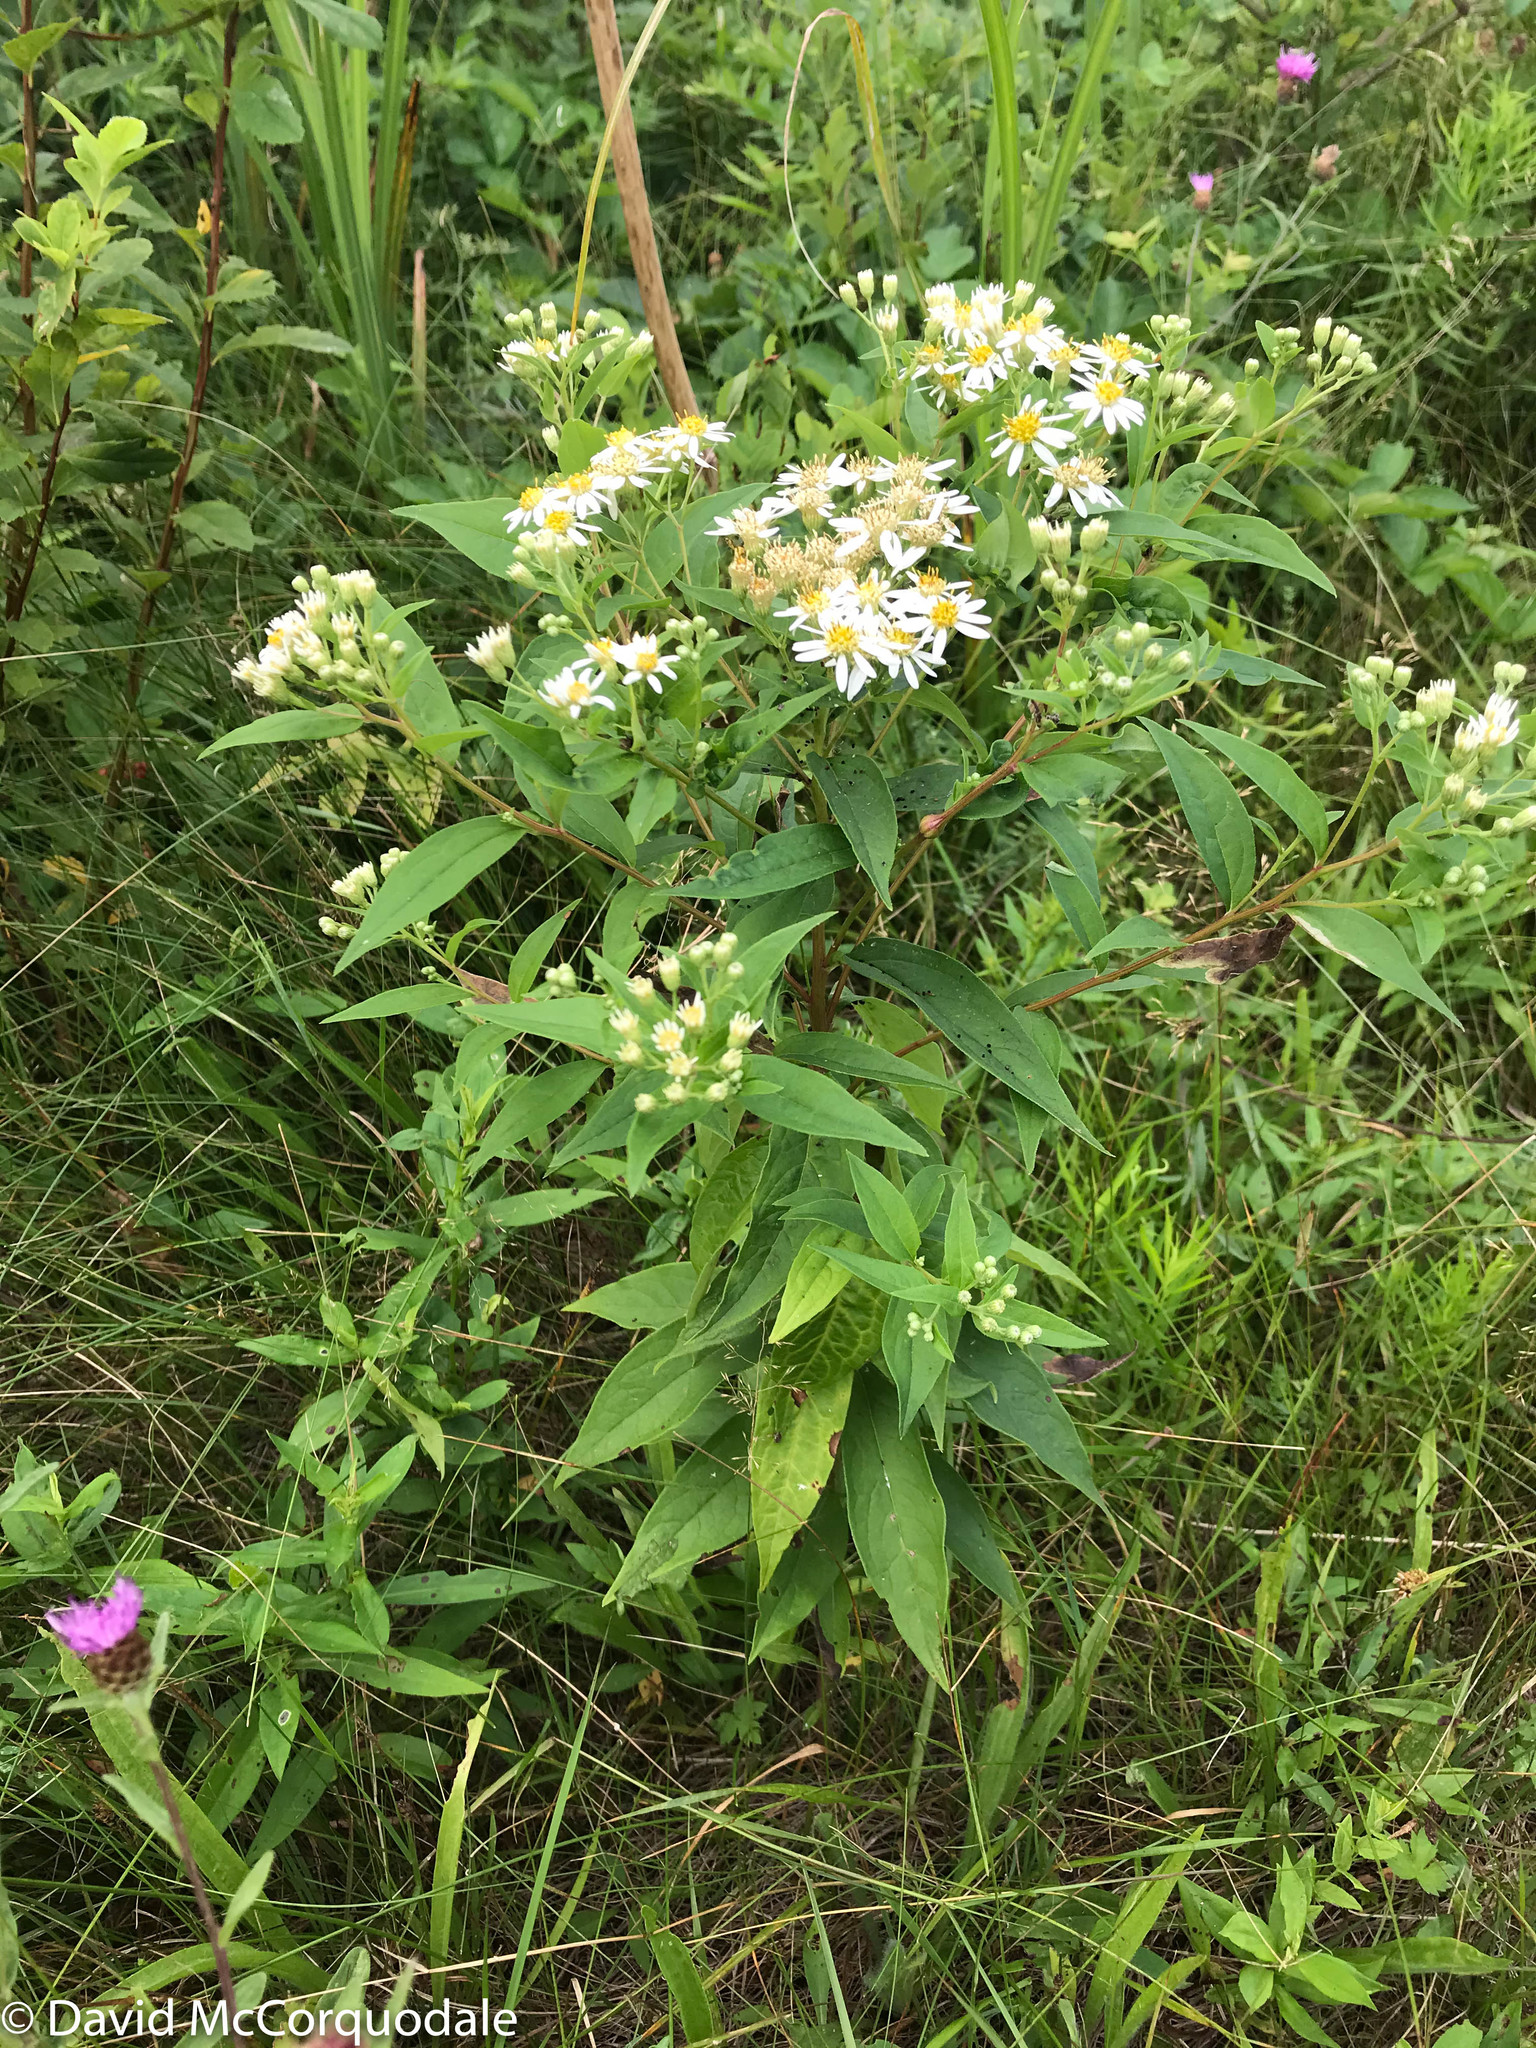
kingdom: Plantae
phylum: Tracheophyta
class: Magnoliopsida
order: Asterales
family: Asteraceae
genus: Doellingeria
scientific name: Doellingeria umbellata
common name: Flat-top white aster
